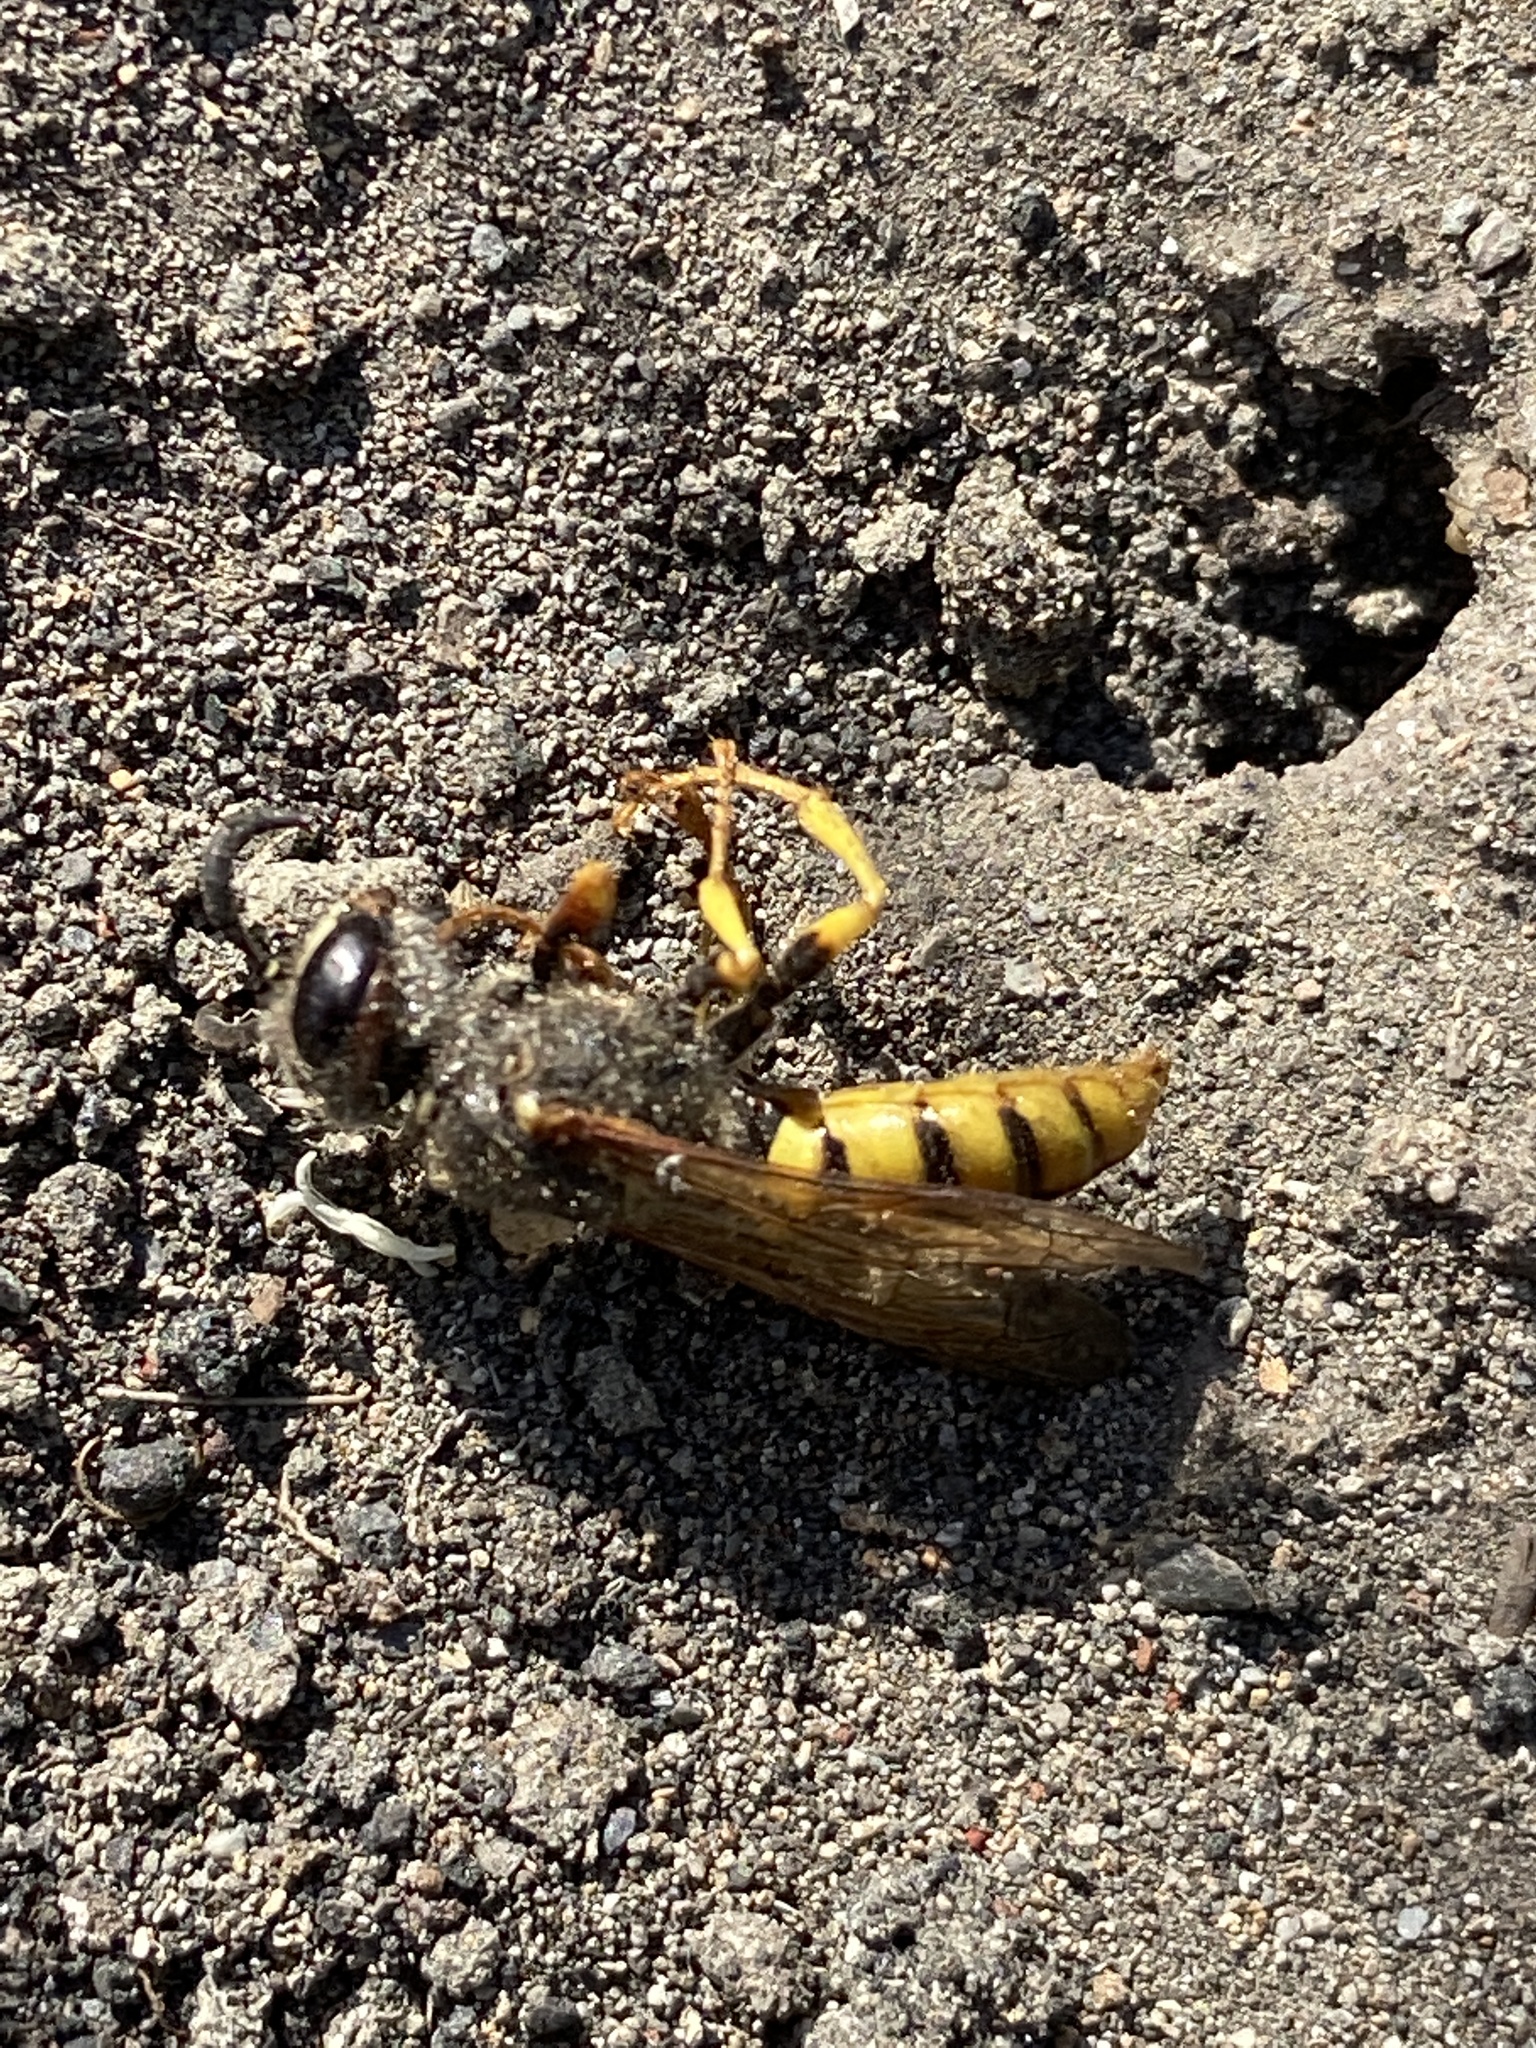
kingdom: Animalia
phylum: Arthropoda
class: Insecta
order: Hymenoptera
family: Crabronidae
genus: Philanthus
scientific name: Philanthus triangulum
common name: Bee wolf
